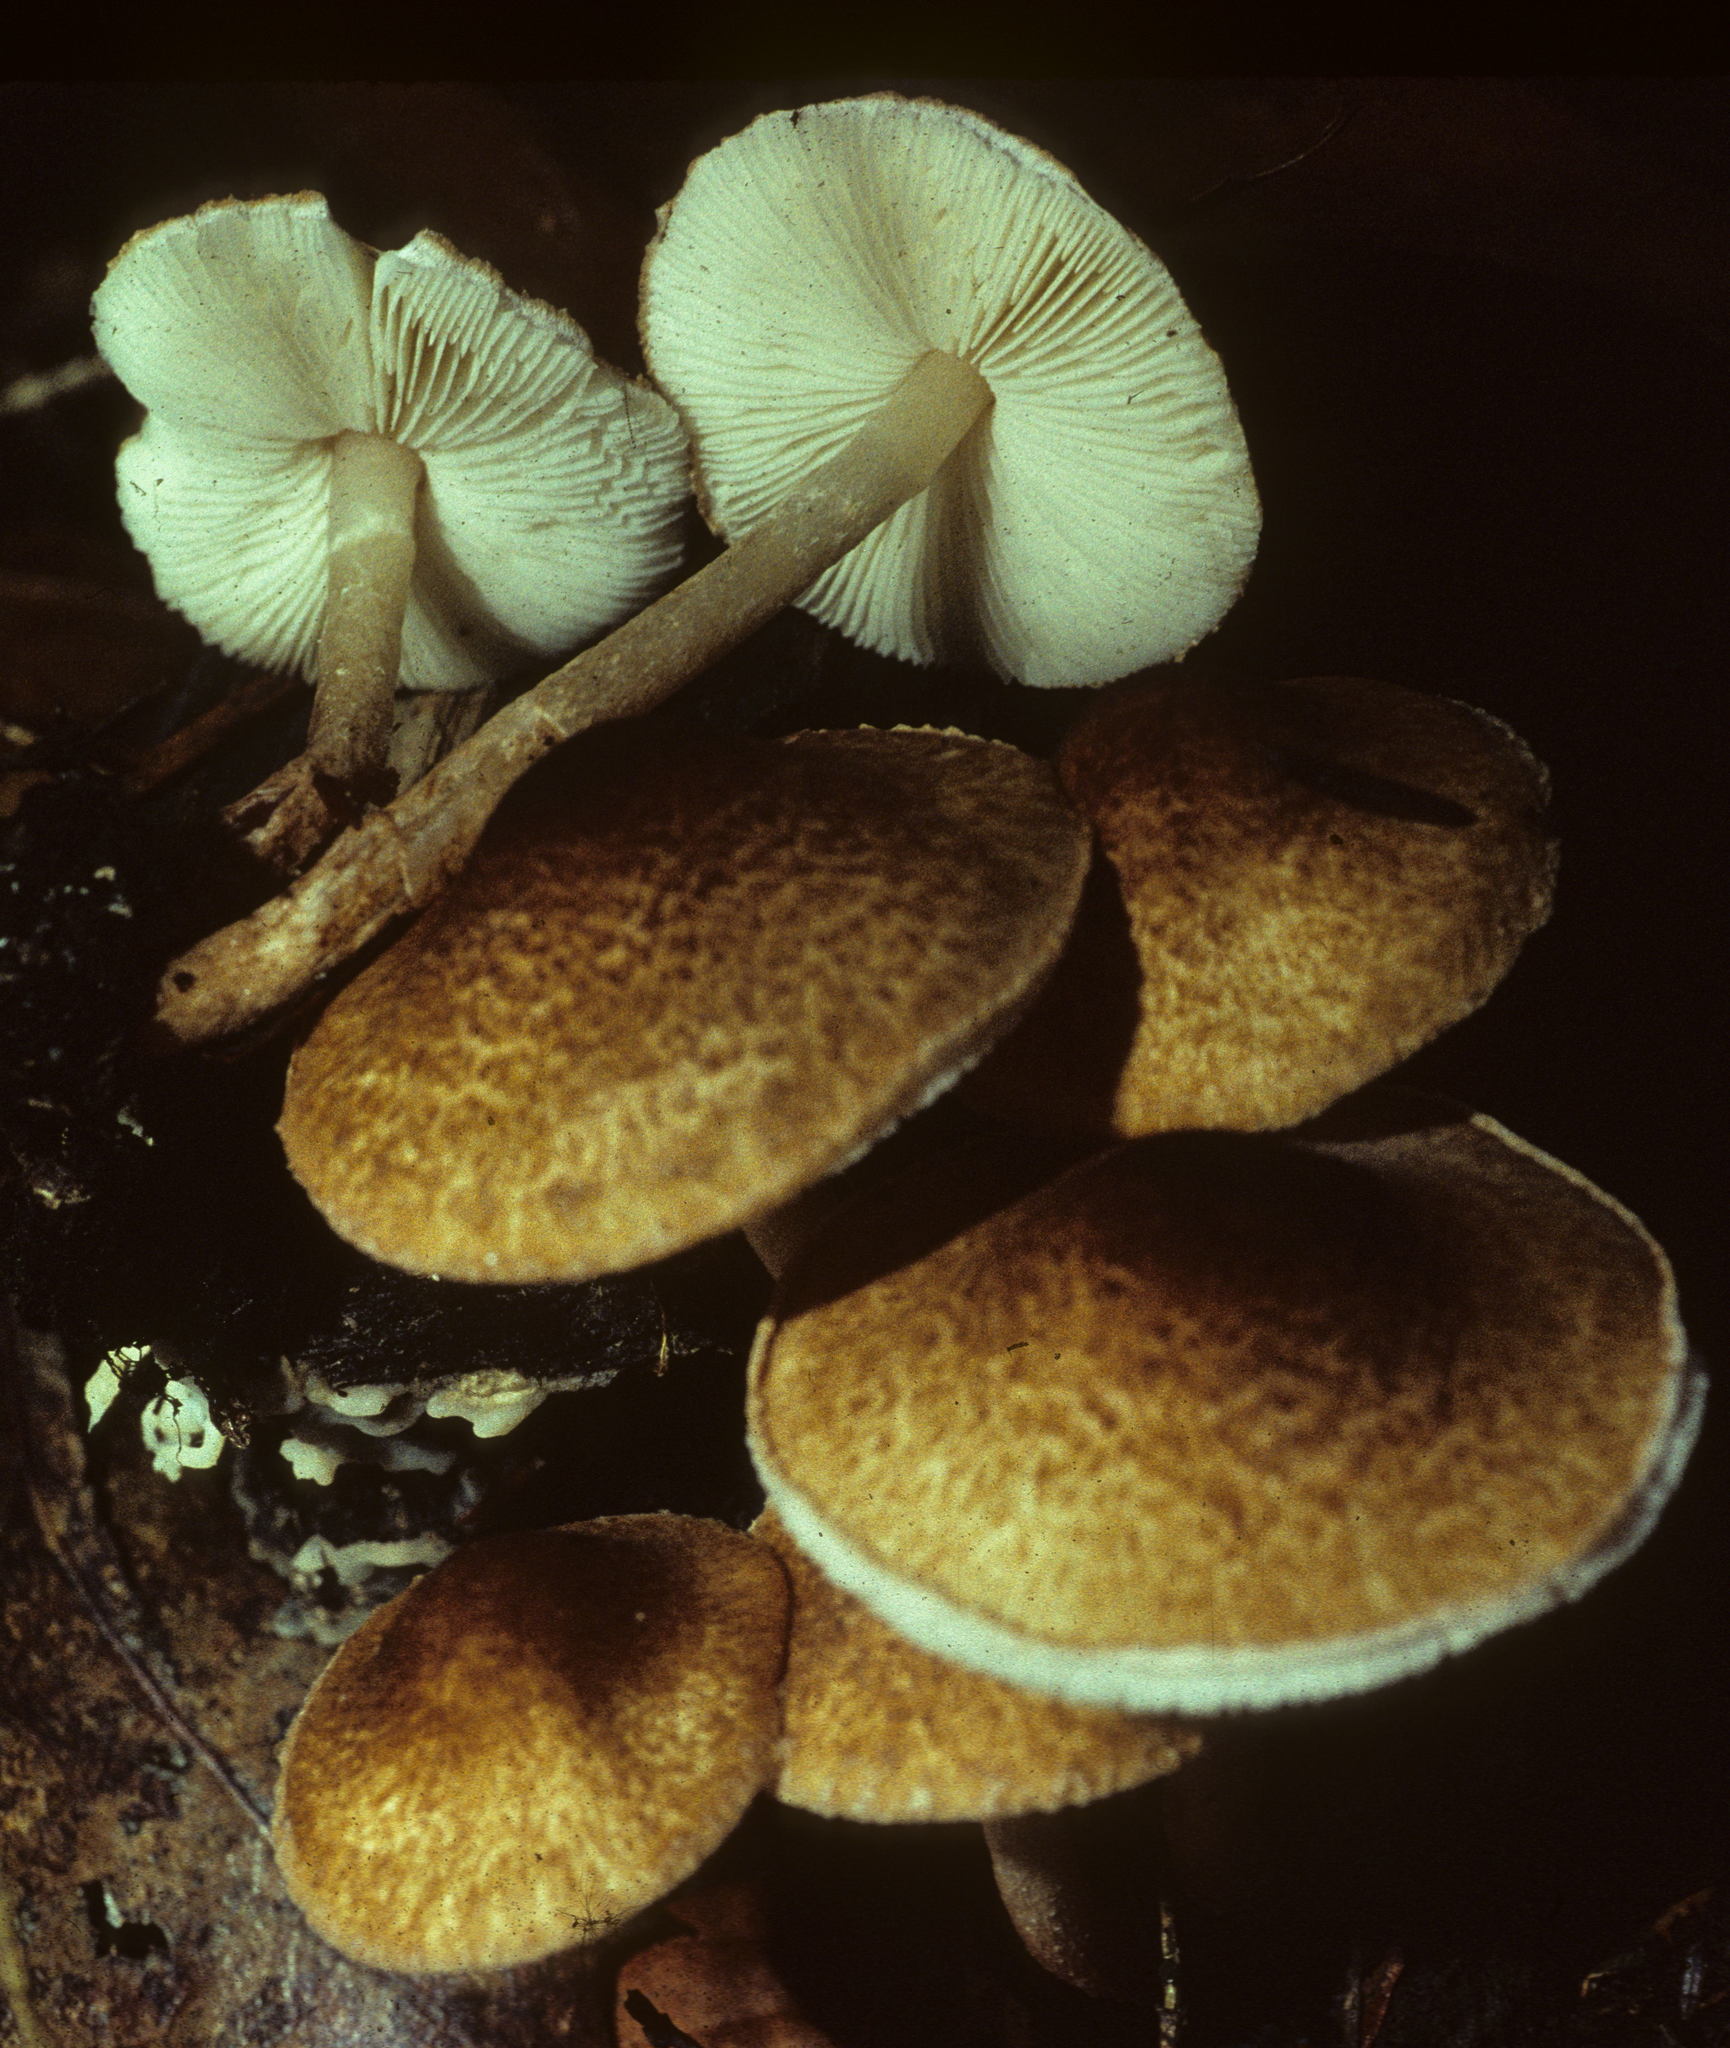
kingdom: Fungi
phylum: Basidiomycota
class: Agaricomycetes
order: Agaricales
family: Agaricaceae
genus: Lepiota
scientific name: Lepiota castanea
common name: Chestnut dapperling
